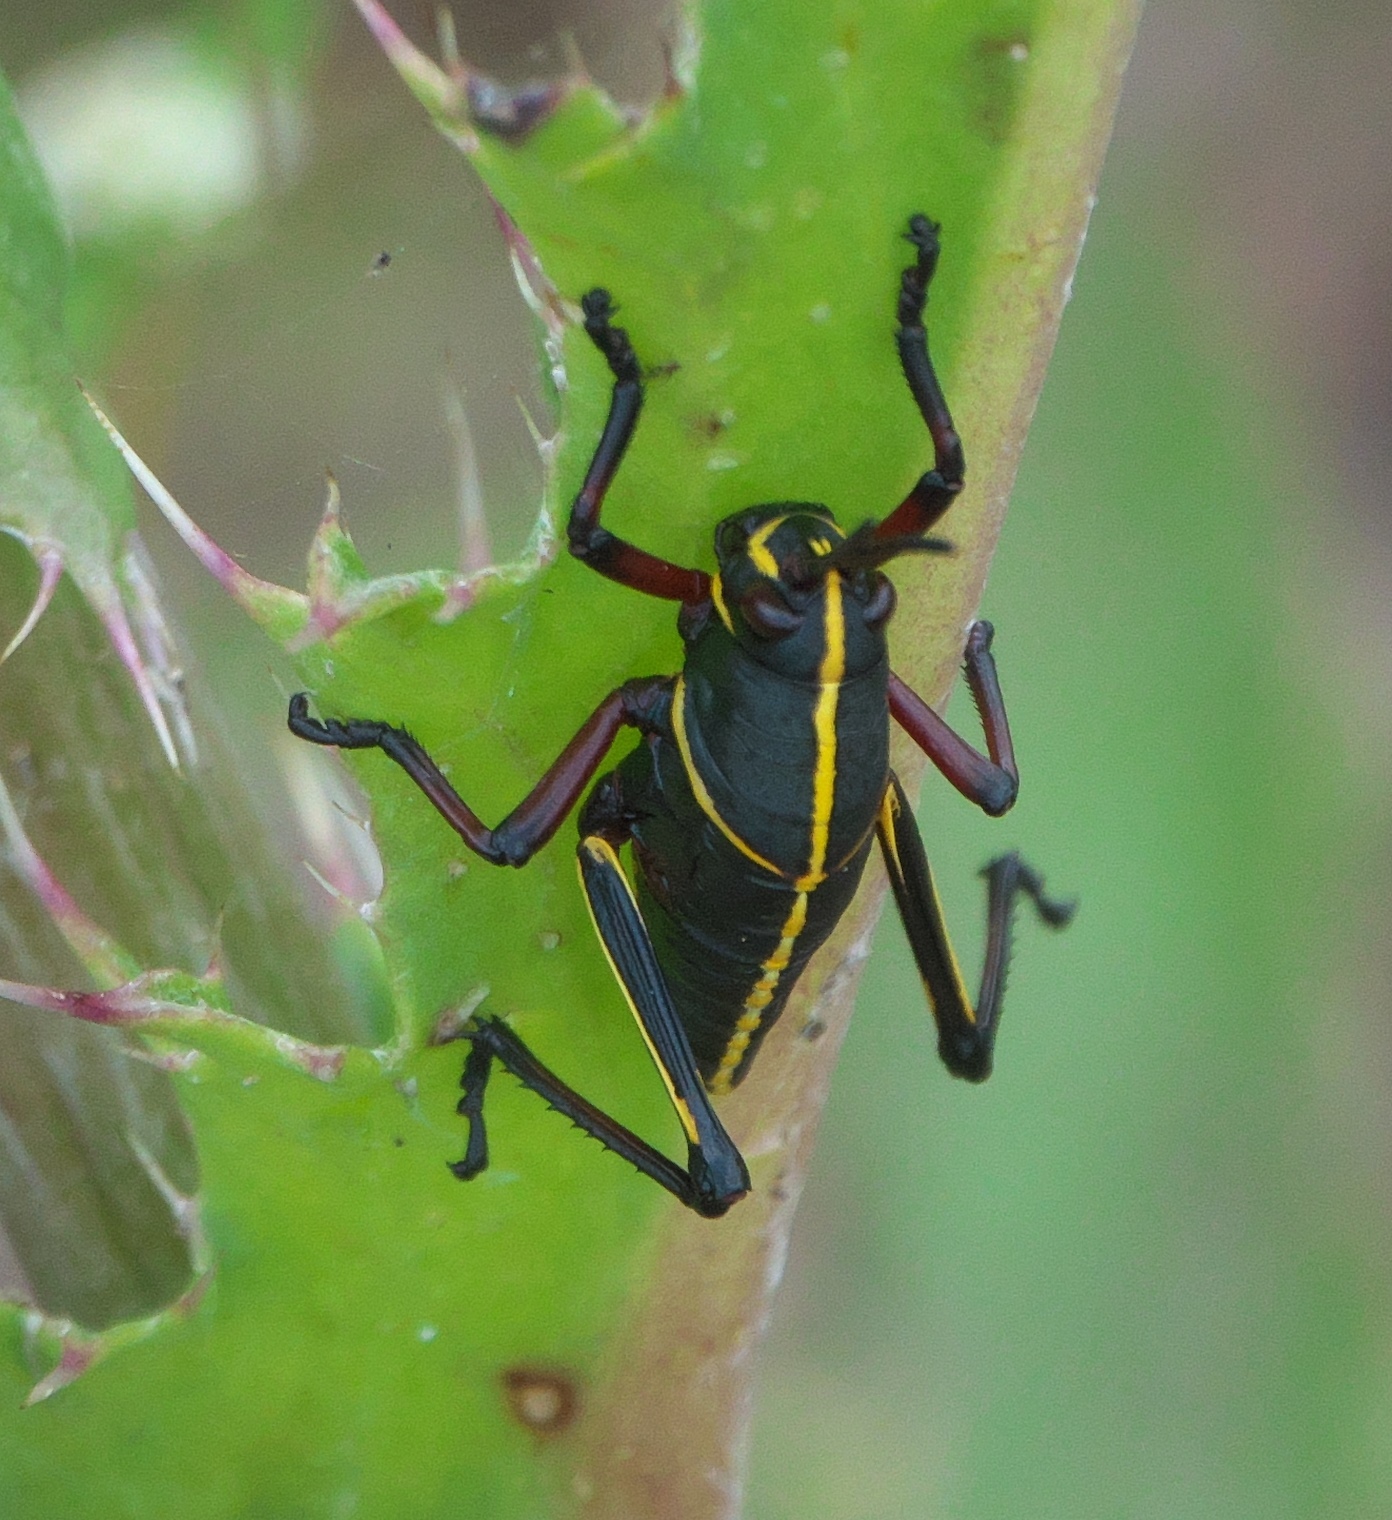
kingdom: Animalia
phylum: Arthropoda
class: Insecta
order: Orthoptera
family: Romaleidae
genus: Romalea
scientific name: Romalea microptera
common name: Eastern lubber grasshopper
